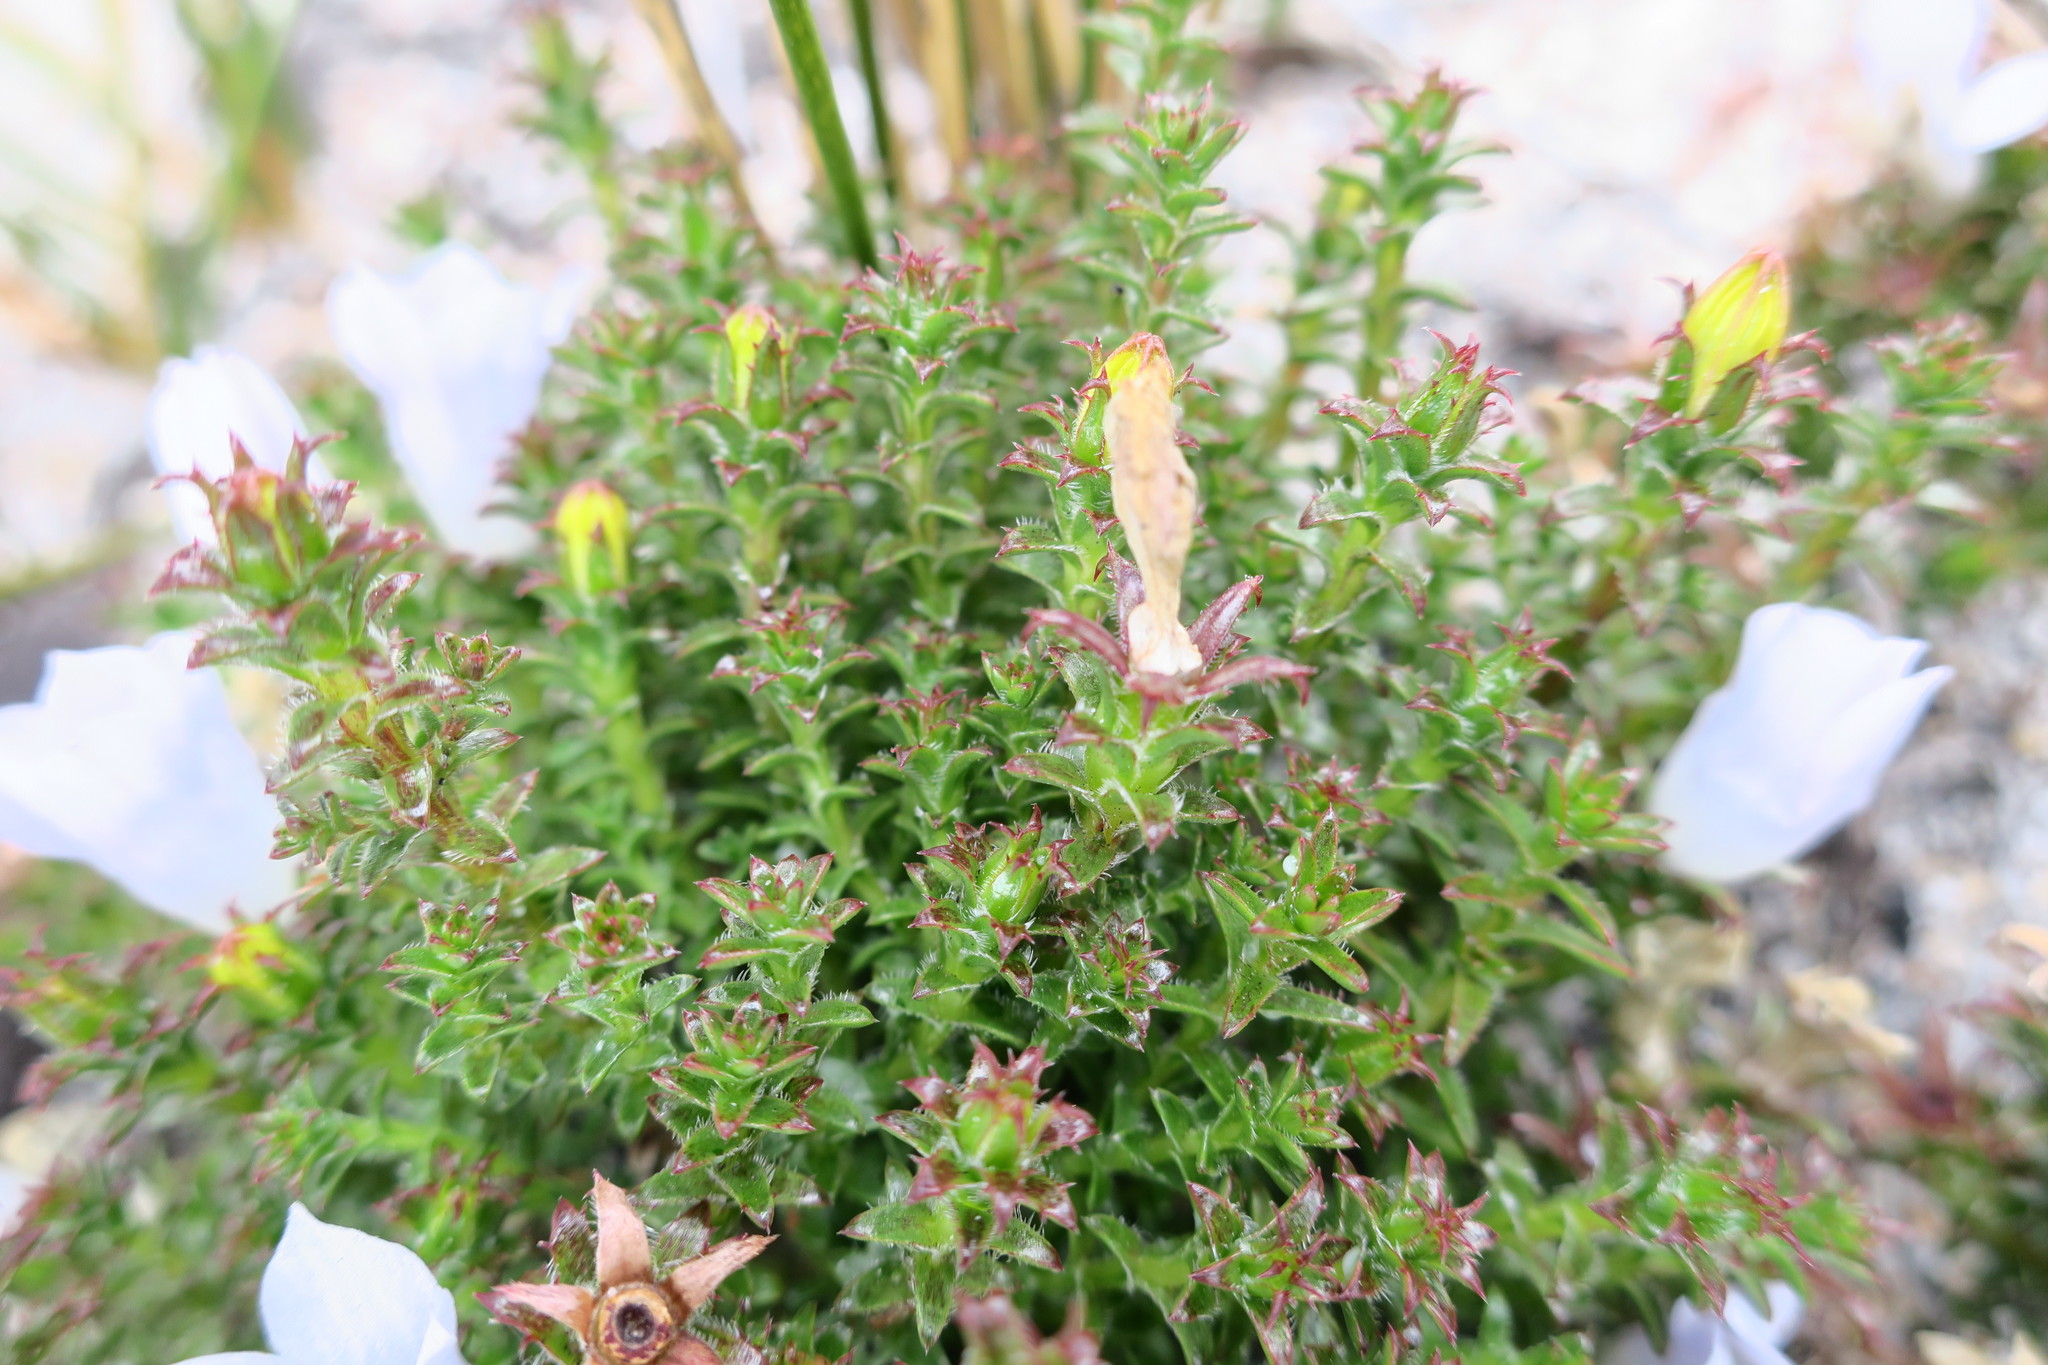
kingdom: Plantae
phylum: Tracheophyta
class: Magnoliopsida
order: Asterales
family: Campanulaceae
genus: Roella
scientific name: Roella goodiana
